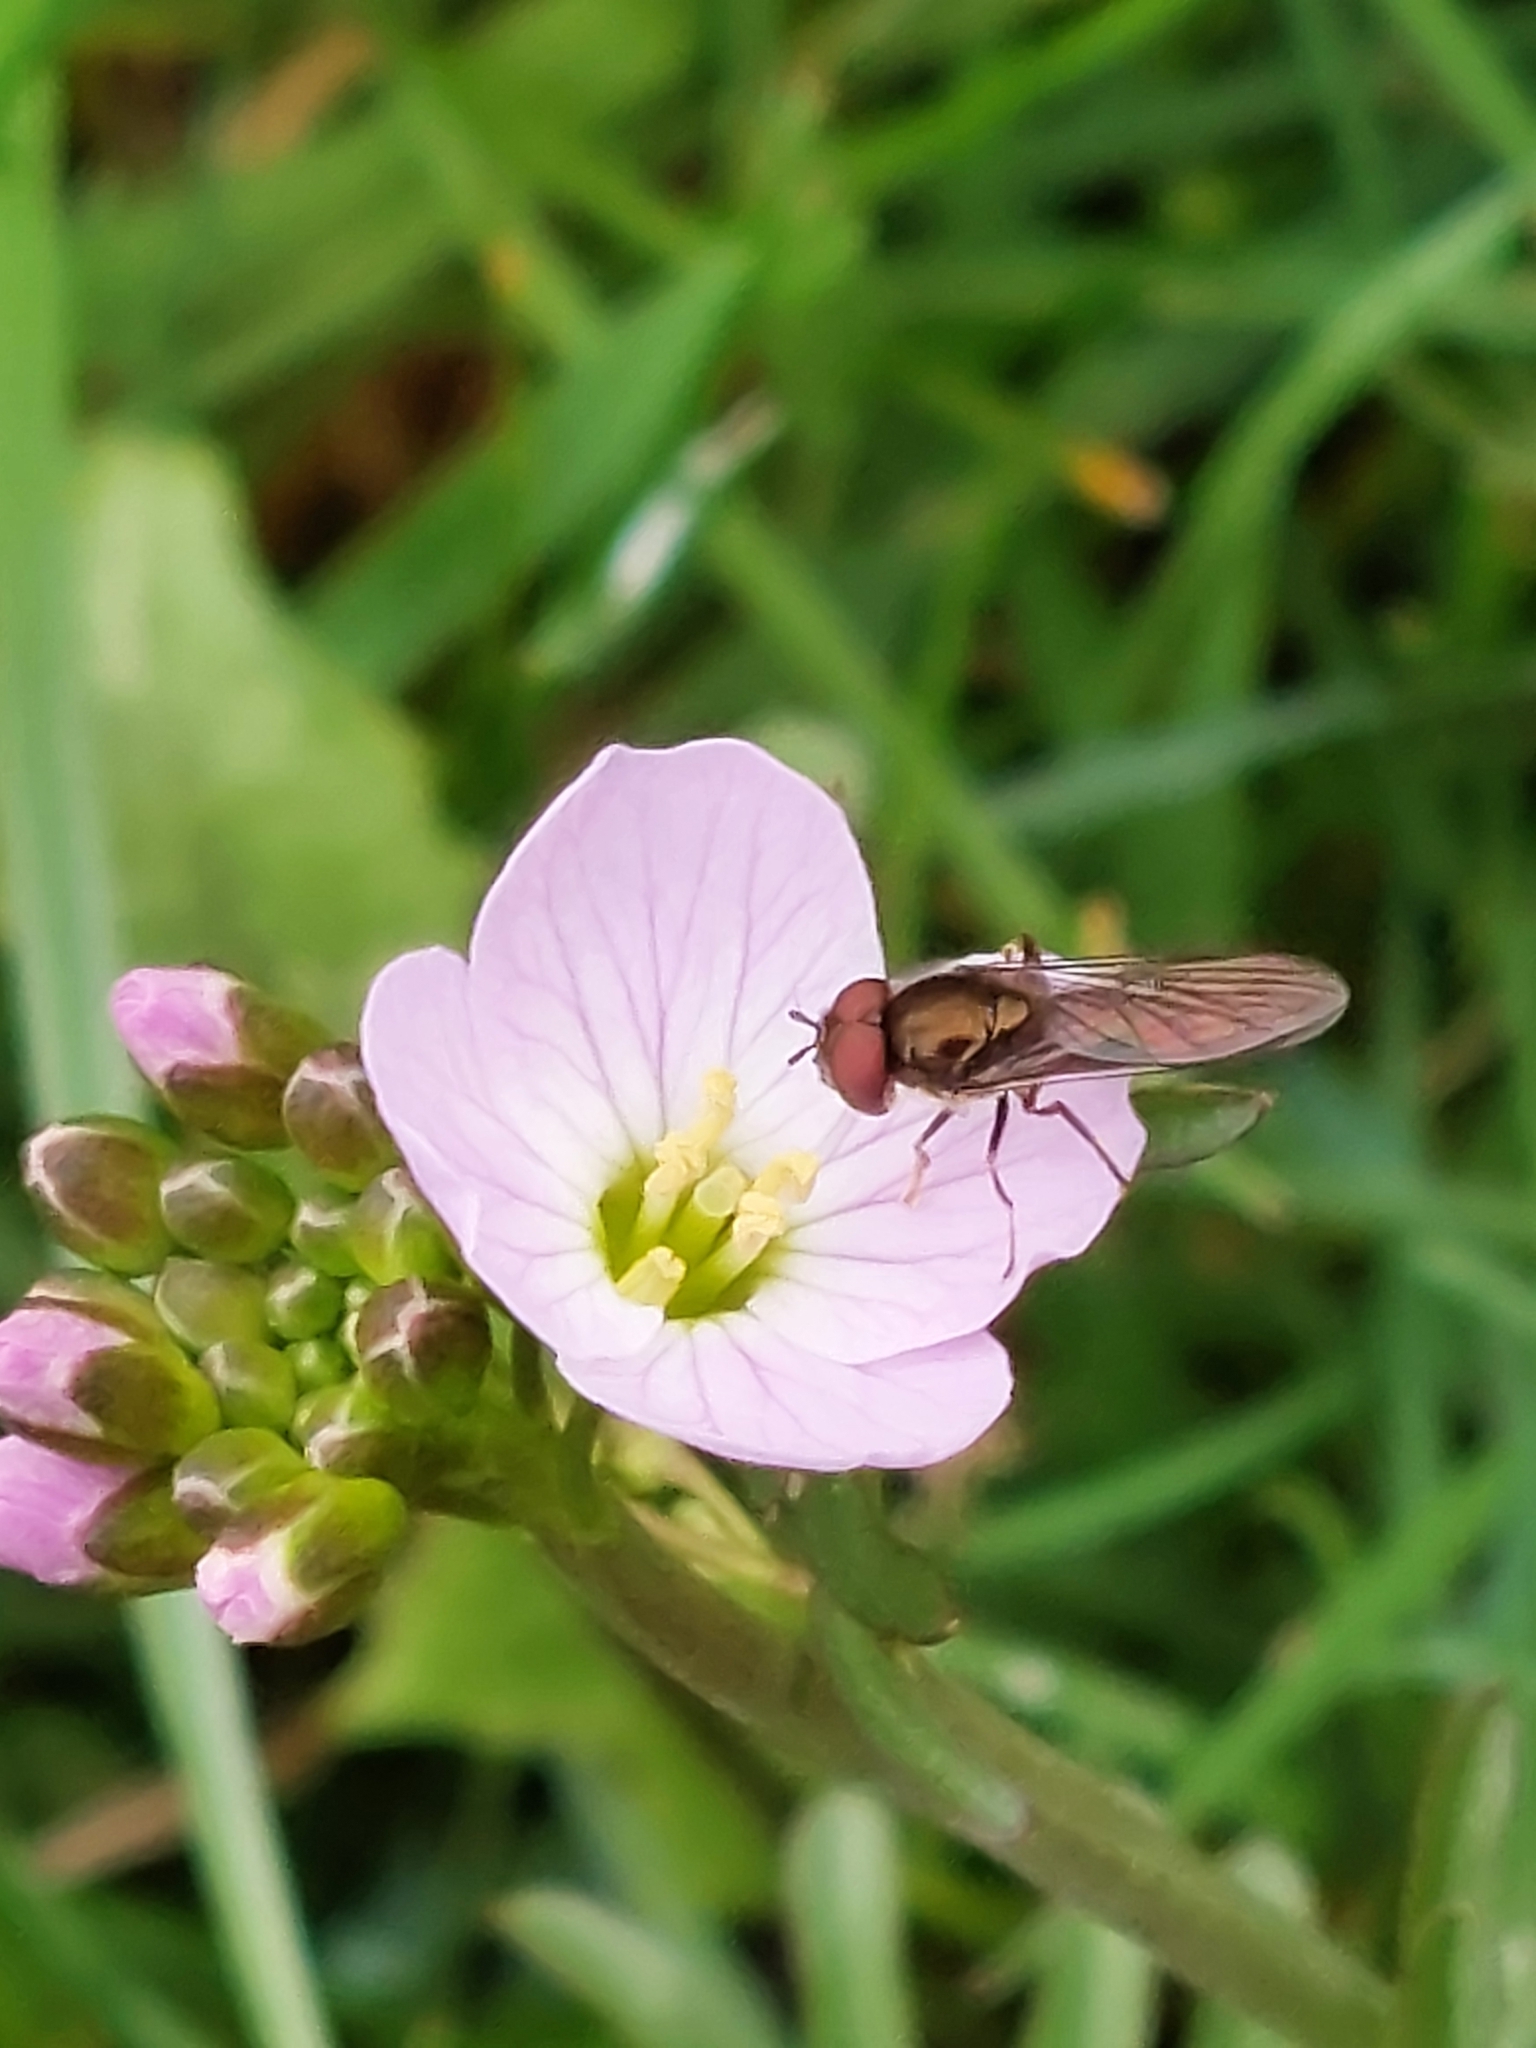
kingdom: Animalia
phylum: Arthropoda
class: Insecta
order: Diptera
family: Syrphidae
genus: Platycheirus
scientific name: Platycheirus
